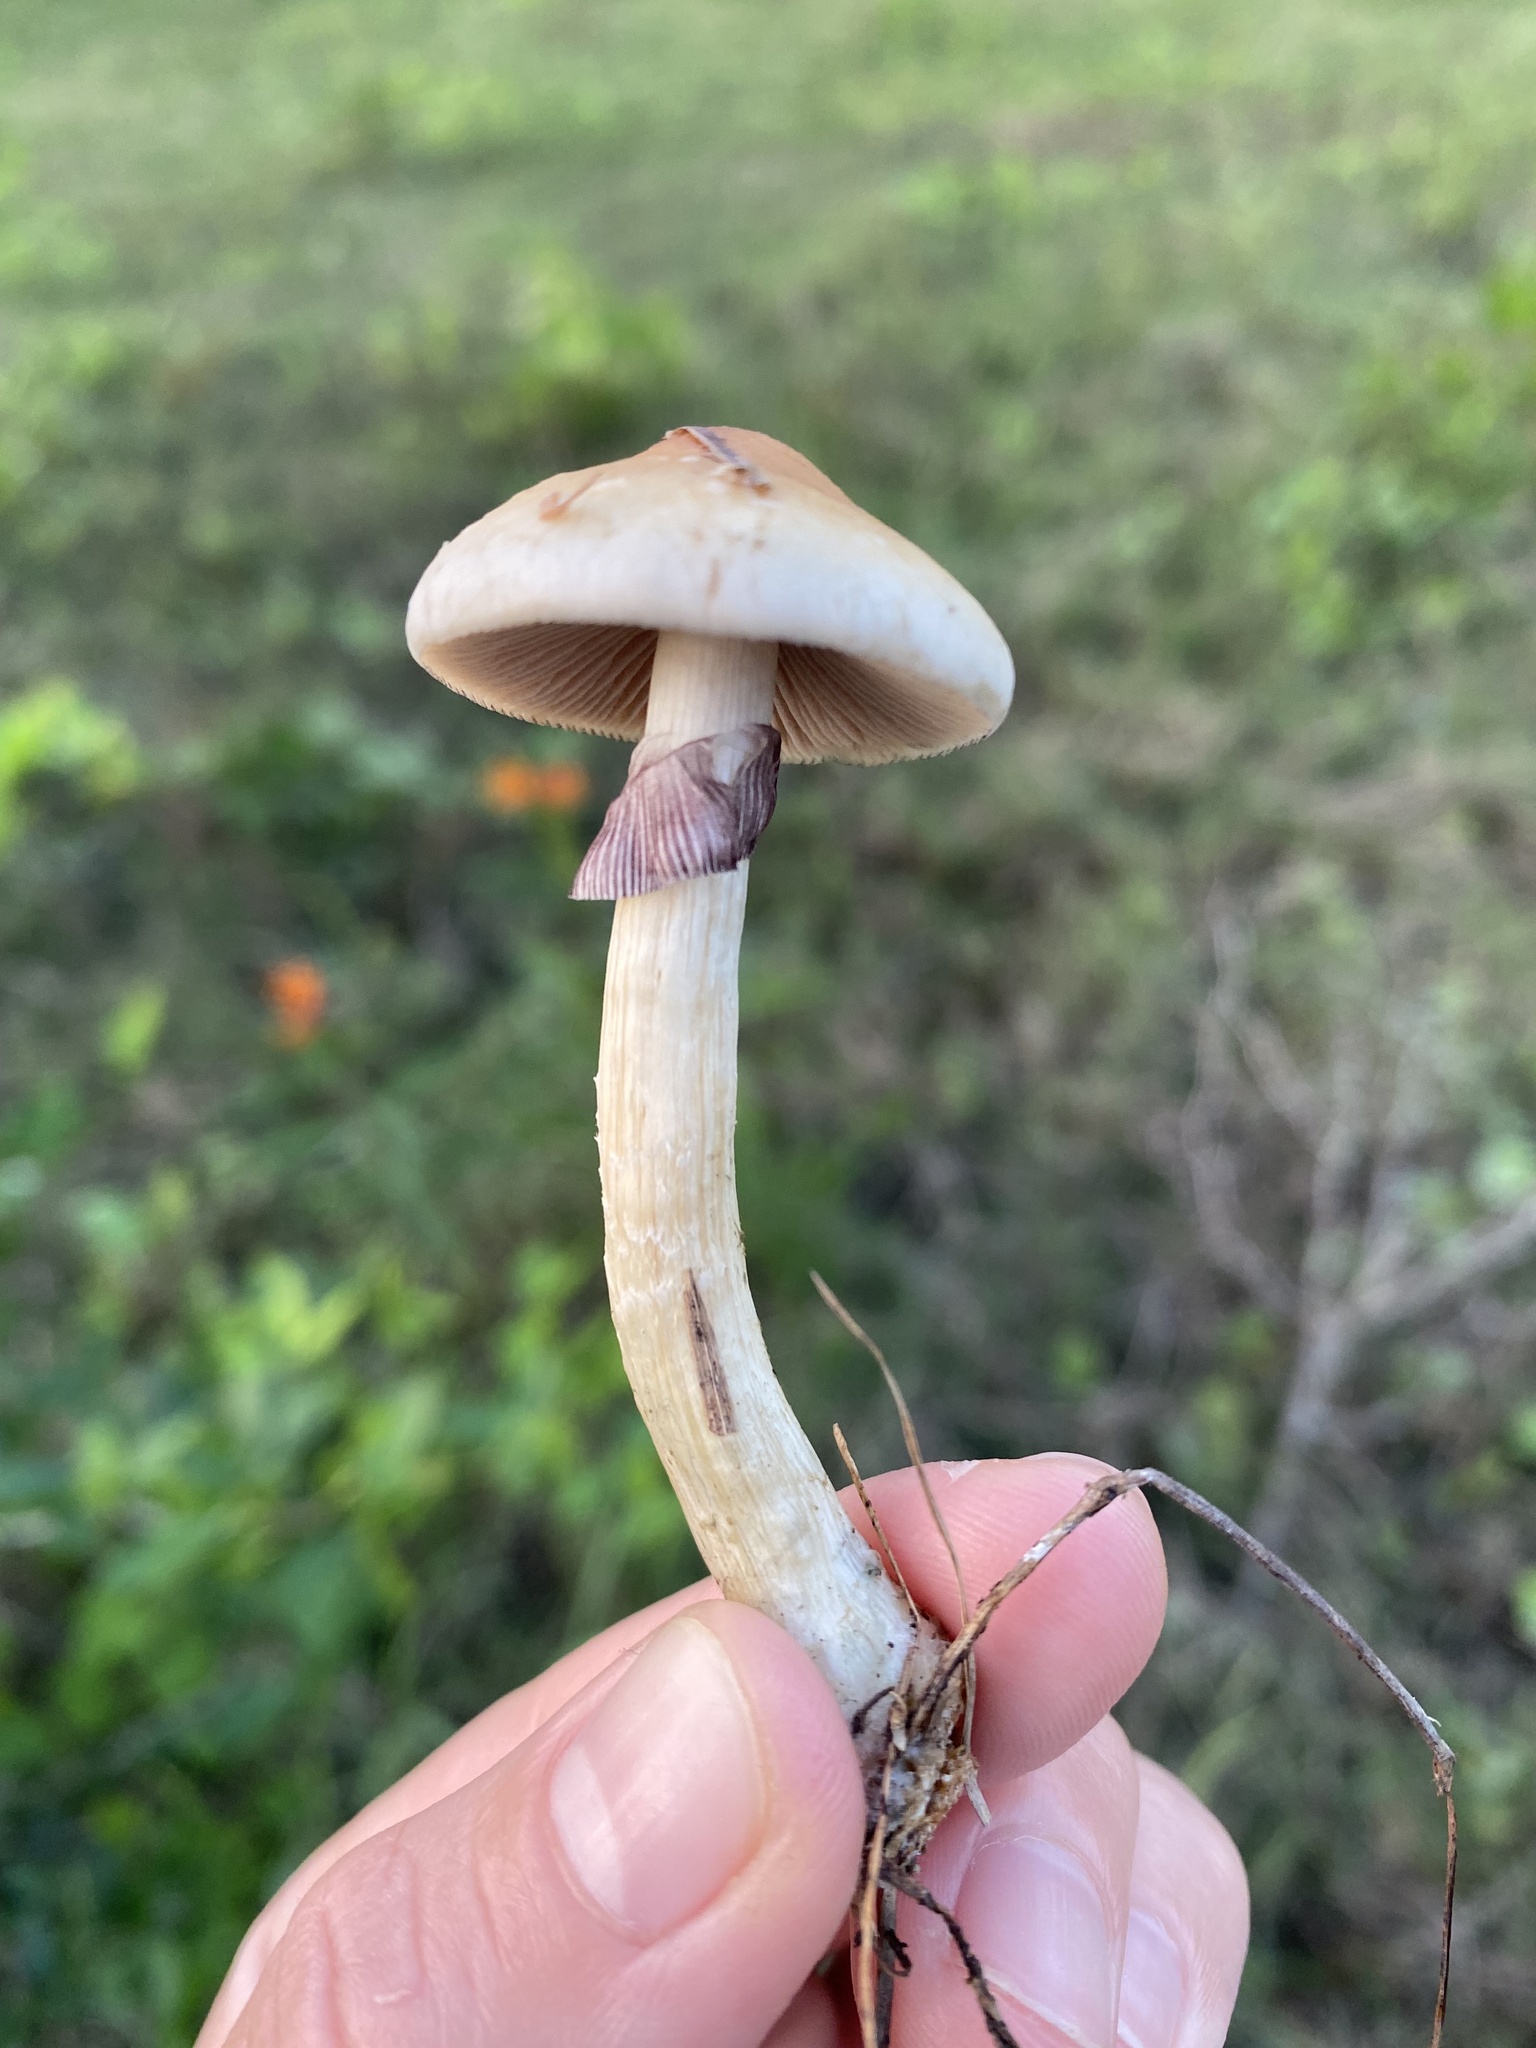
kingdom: Fungi
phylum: Basidiomycota
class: Agaricomycetes
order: Agaricales
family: Hymenogastraceae
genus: Psilocybe
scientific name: Psilocybe cubensis
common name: Golden brownie
